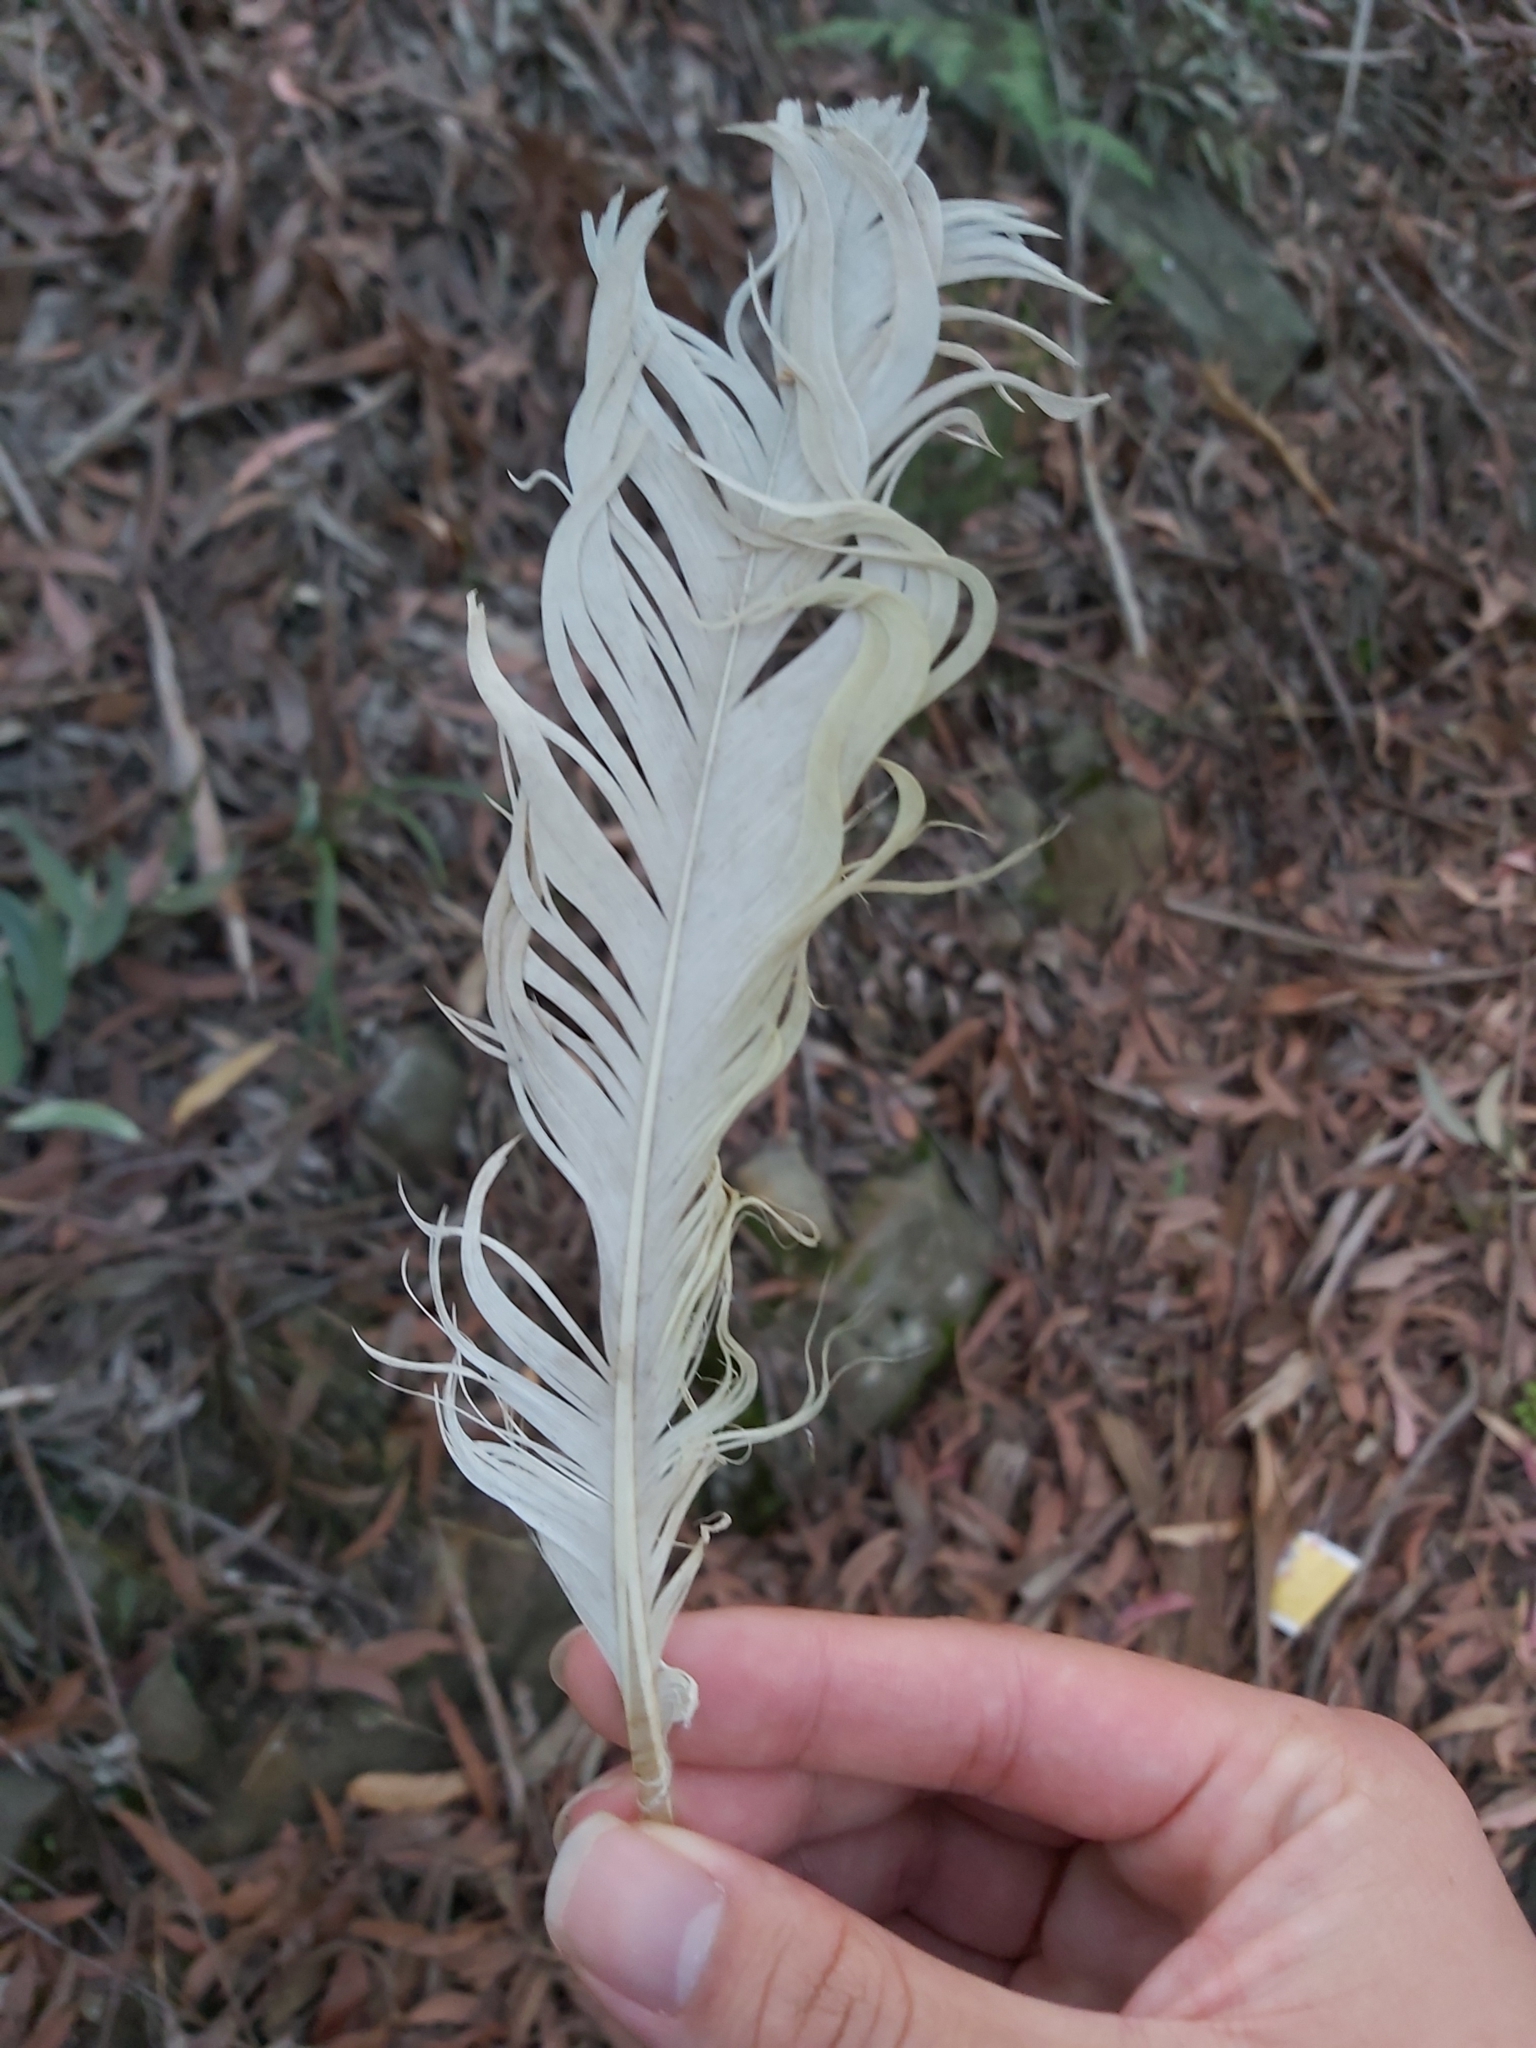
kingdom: Animalia
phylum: Chordata
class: Aves
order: Psittaciformes
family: Psittacidae
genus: Cacatua
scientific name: Cacatua galerita
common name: Sulphur-crested cockatoo
